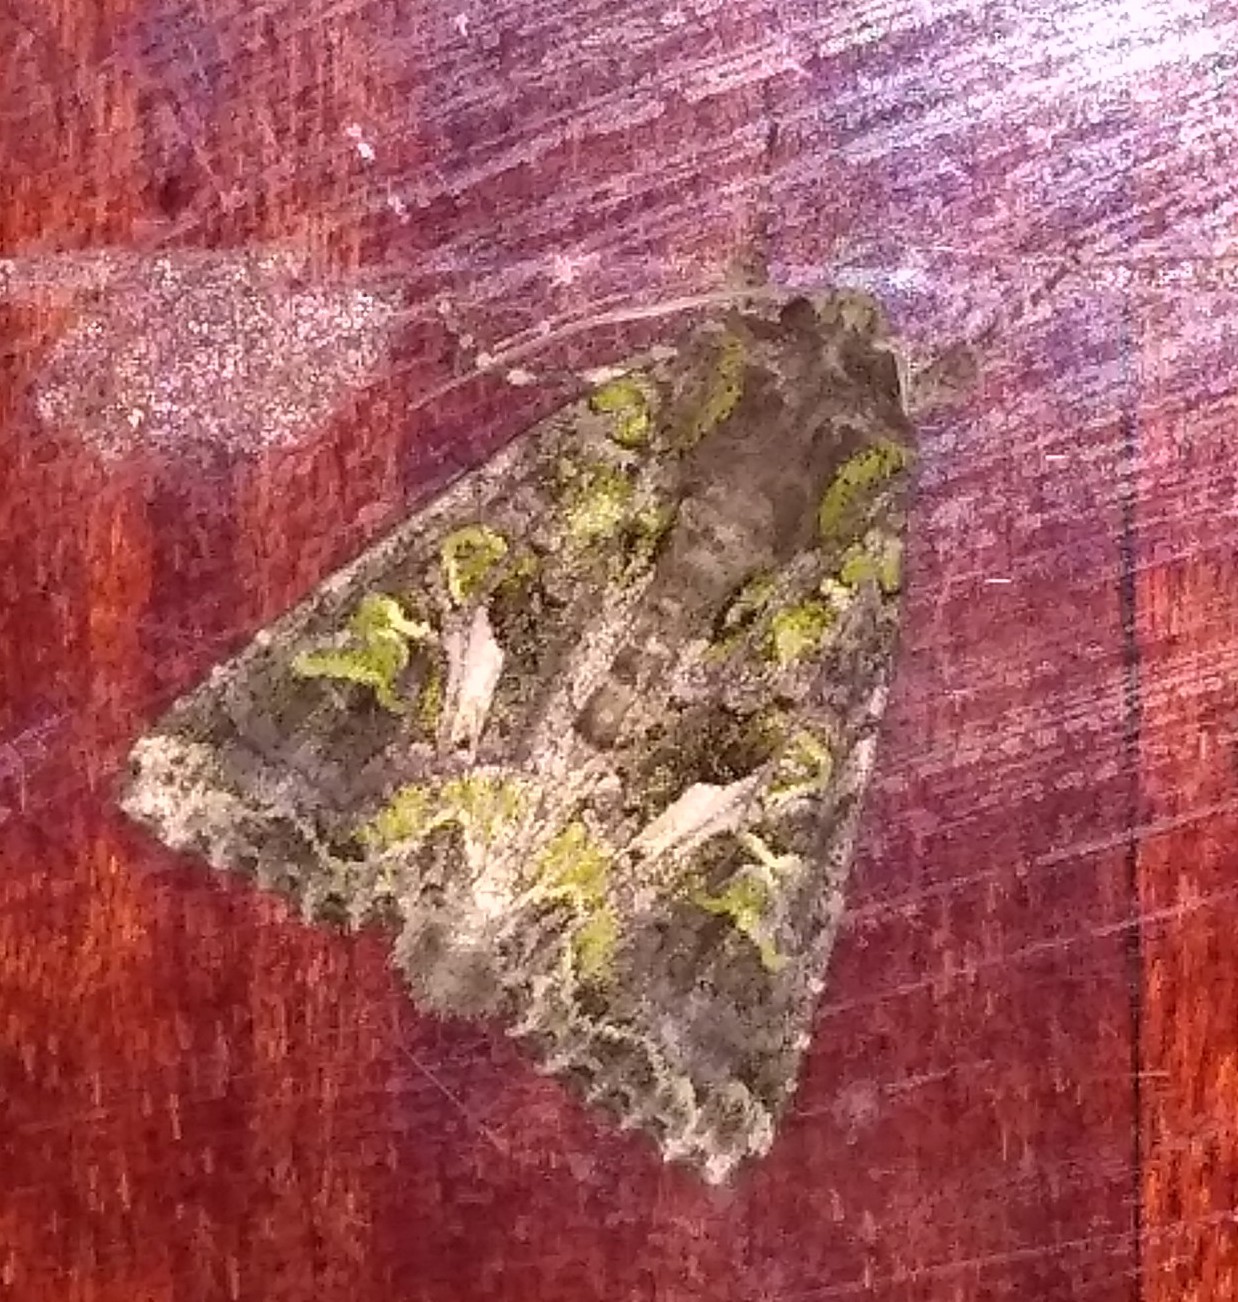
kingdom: Animalia
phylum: Arthropoda
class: Insecta
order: Lepidoptera
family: Noctuidae
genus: Trachea
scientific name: Trachea atriplicis
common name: Orache moth
